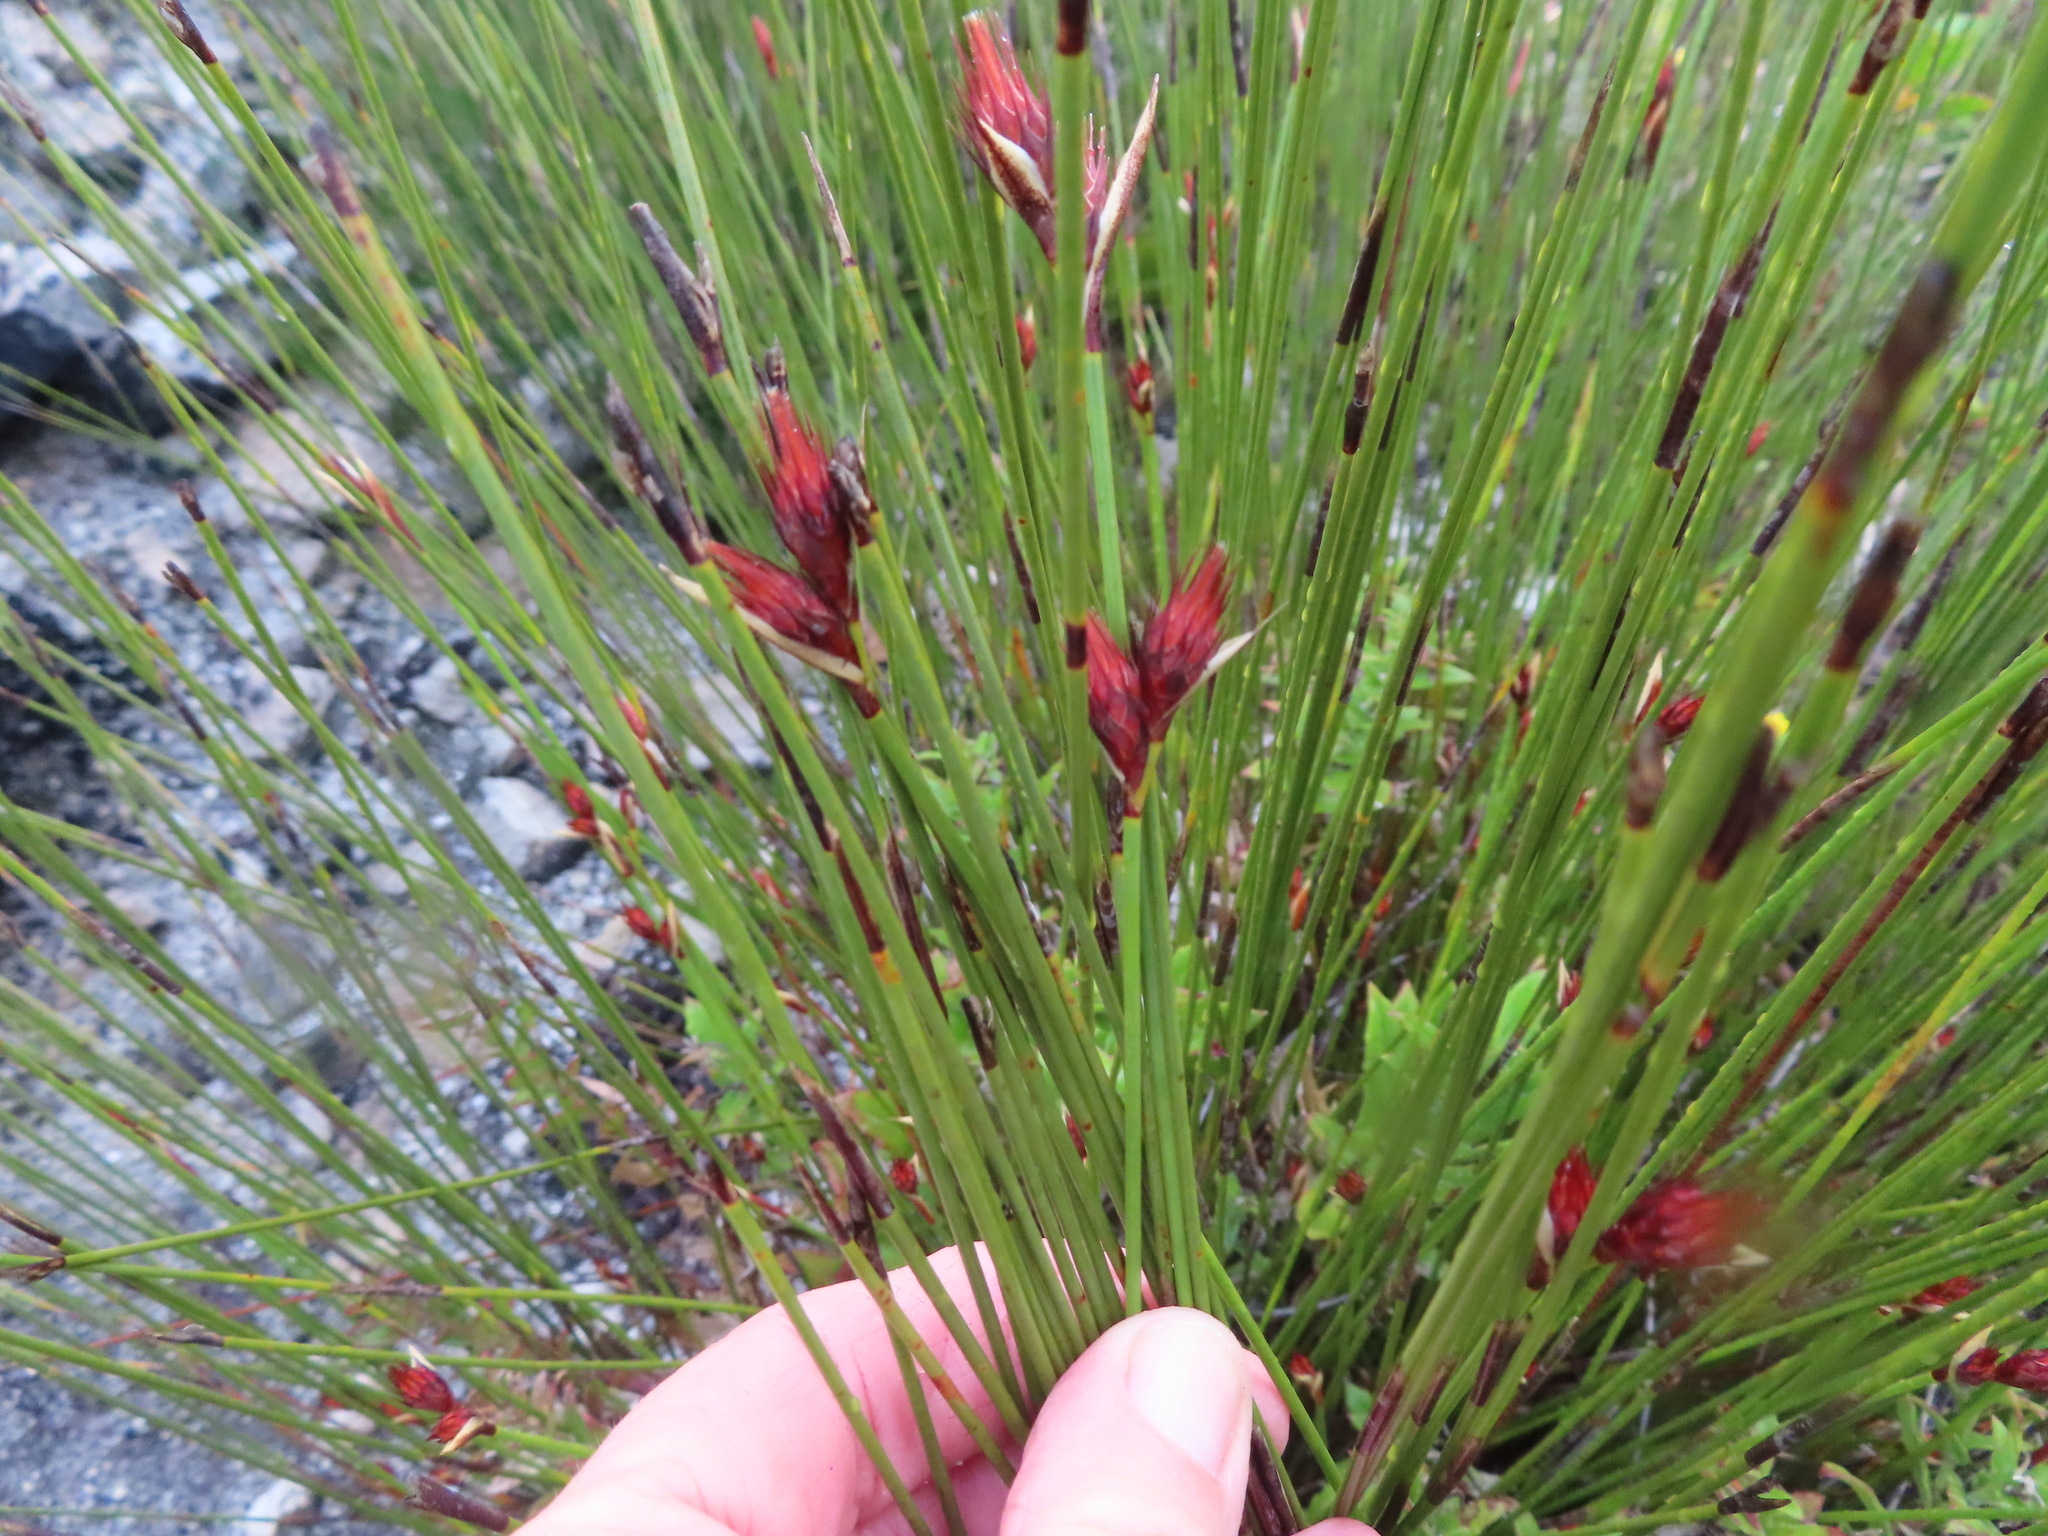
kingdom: Plantae
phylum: Tracheophyta
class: Liliopsida
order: Poales
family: Restionaceae
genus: Hypodiscus
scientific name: Hypodiscus aristatus
